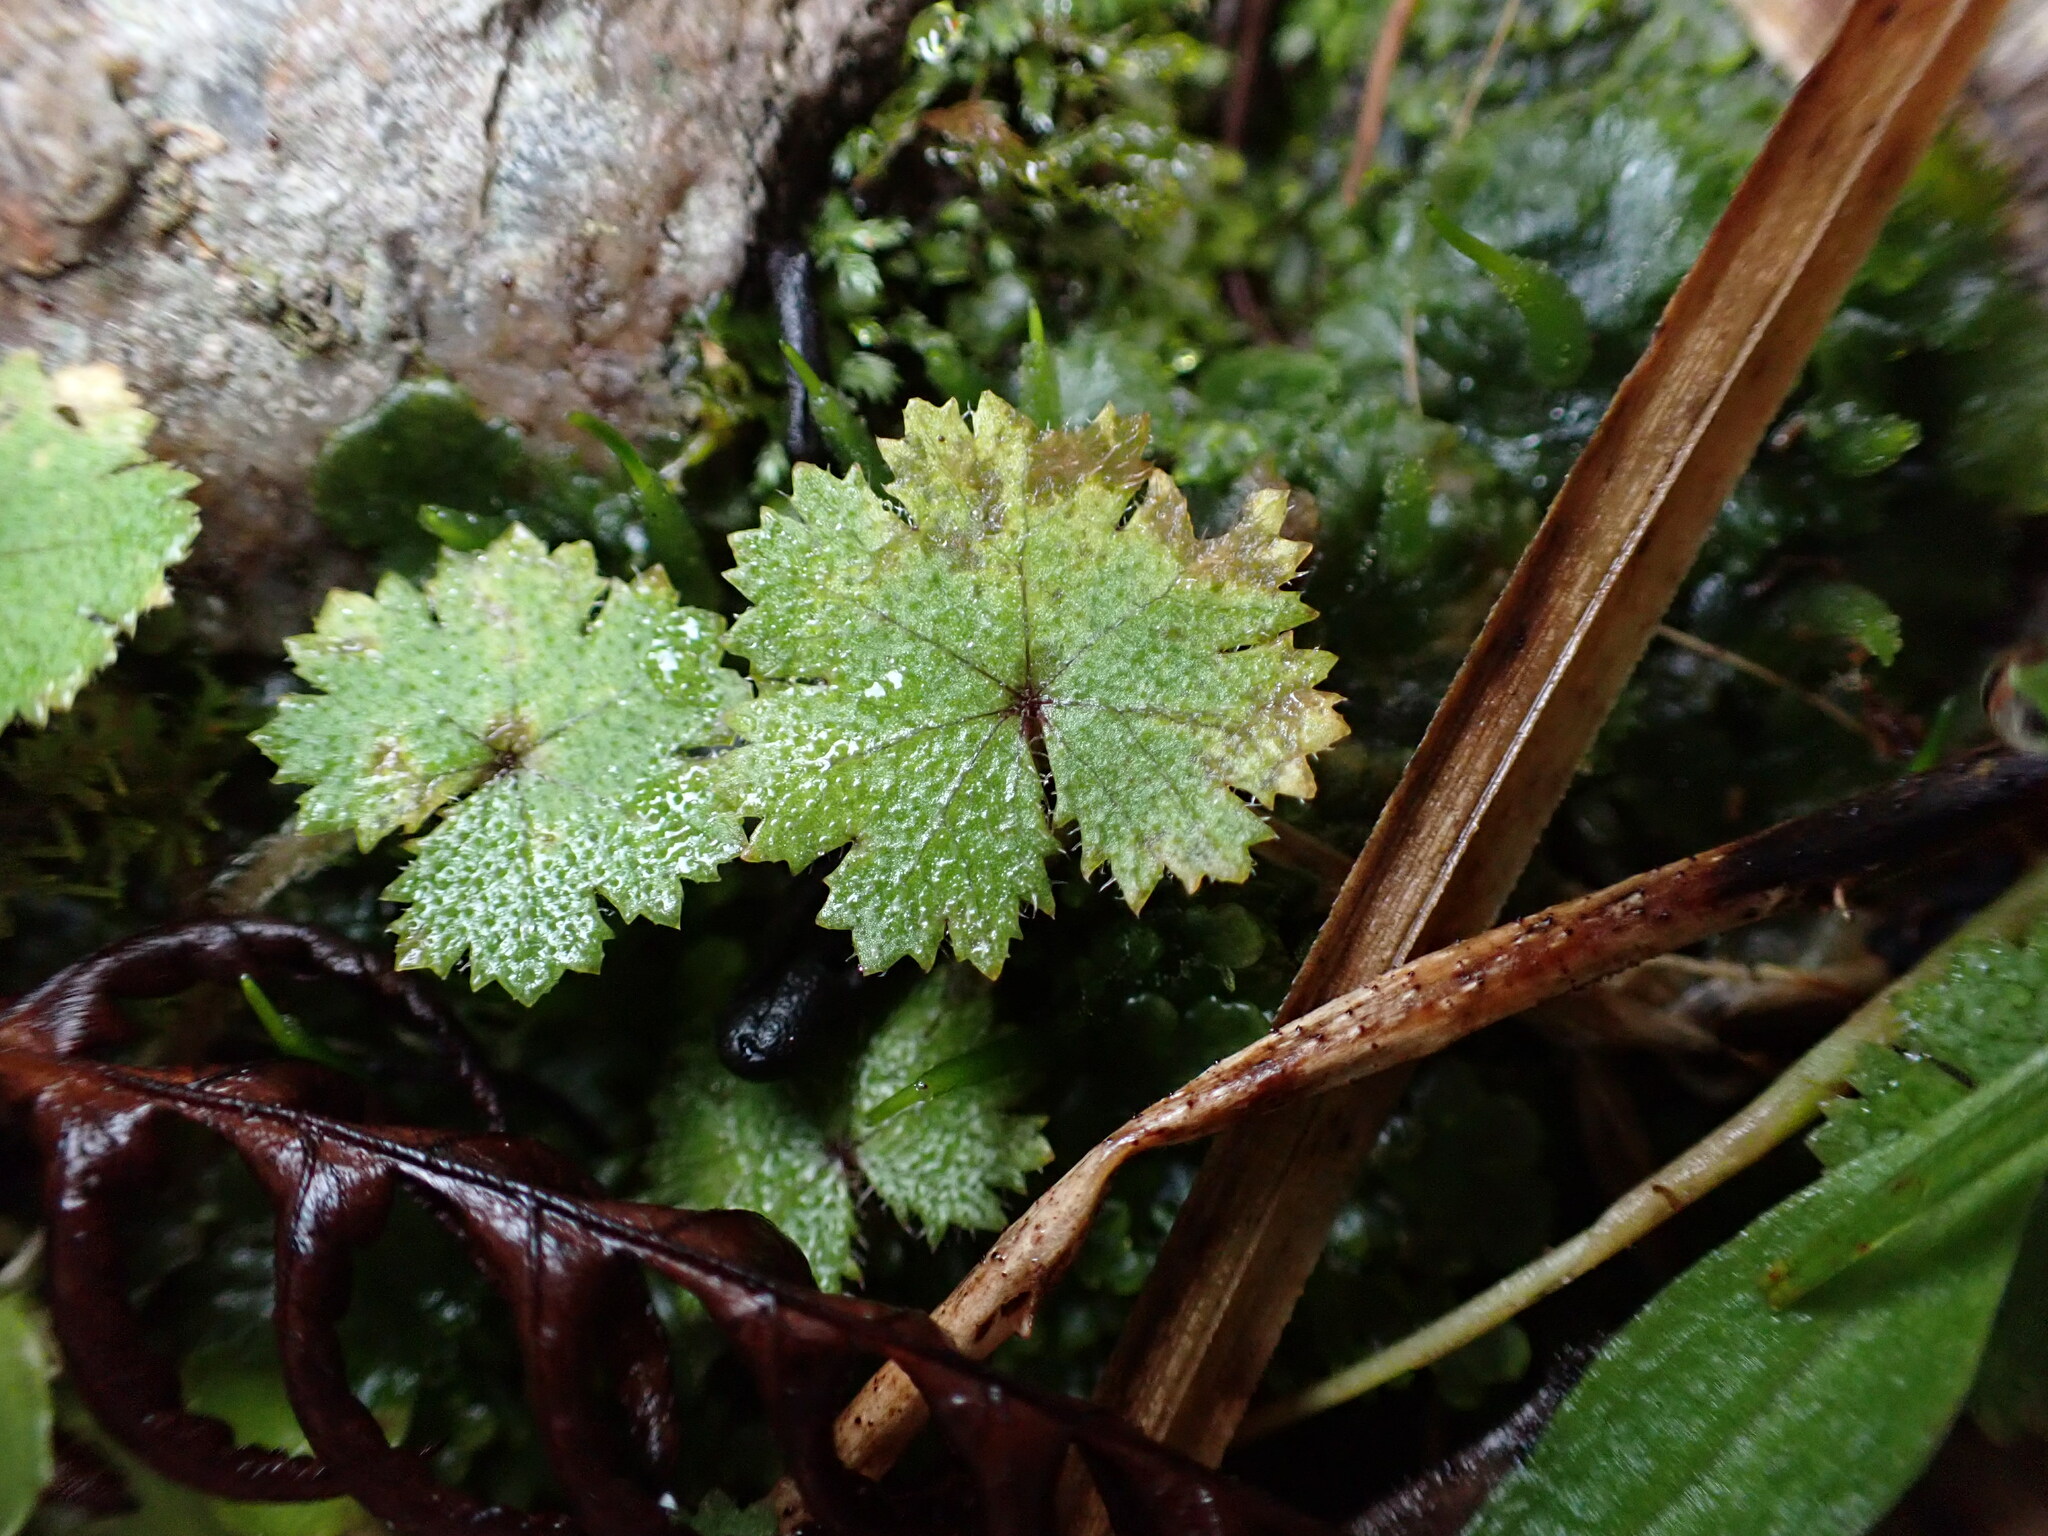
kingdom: Plantae
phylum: Tracheophyta
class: Magnoliopsida
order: Apiales
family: Araliaceae
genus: Hydrocotyle
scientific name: Hydrocotyle moschata
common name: Hairy pennywort
